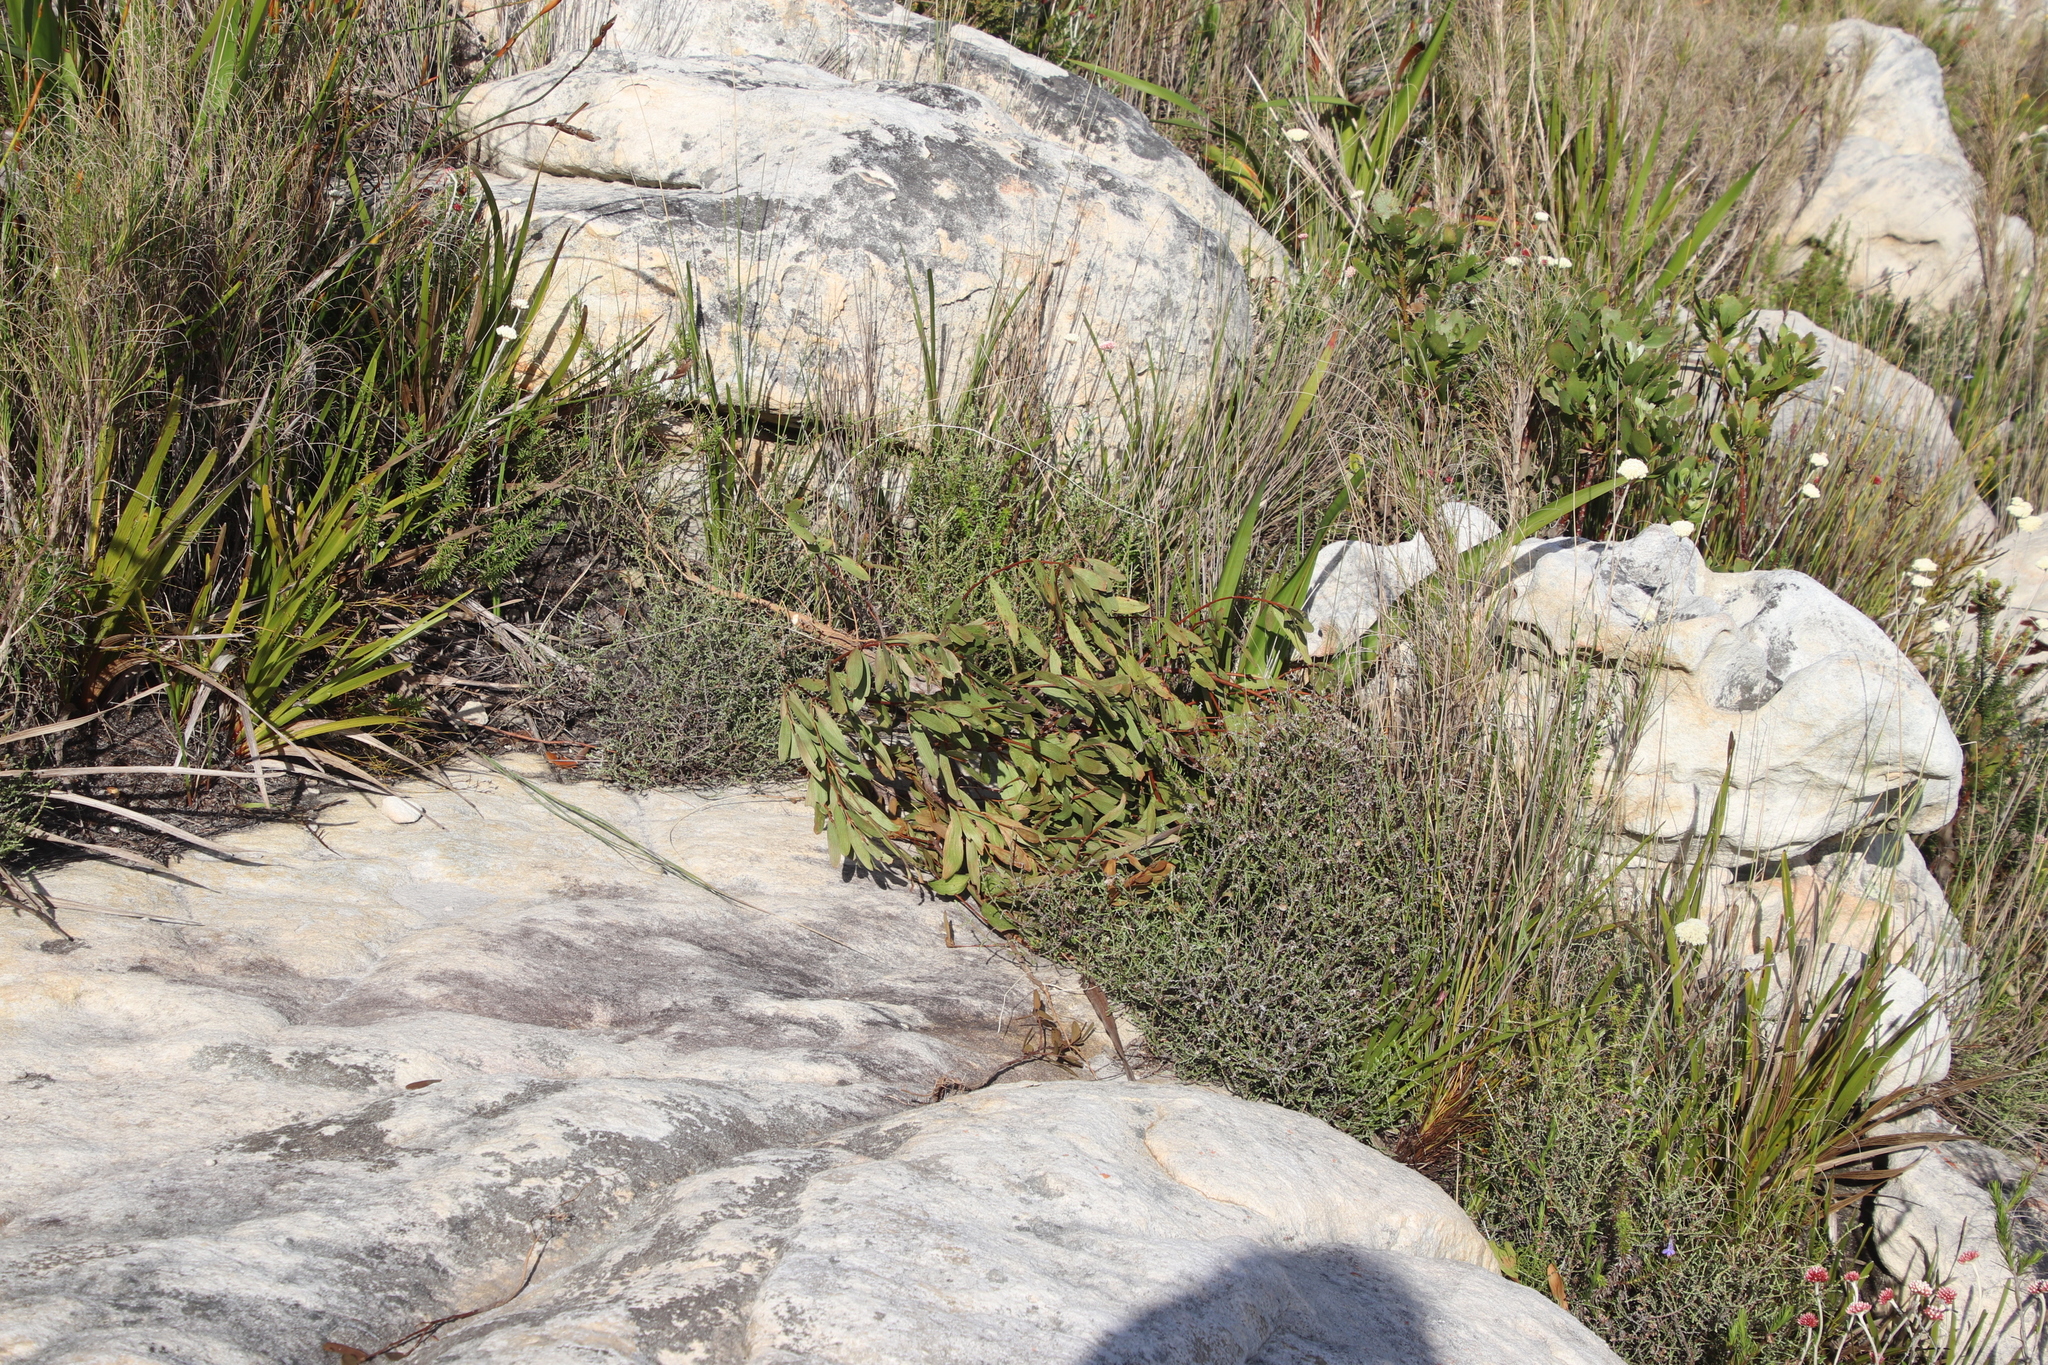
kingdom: Plantae
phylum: Tracheophyta
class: Magnoliopsida
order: Fabales
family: Fabaceae
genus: Acacia
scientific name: Acacia cyclops
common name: Coastal wattle
